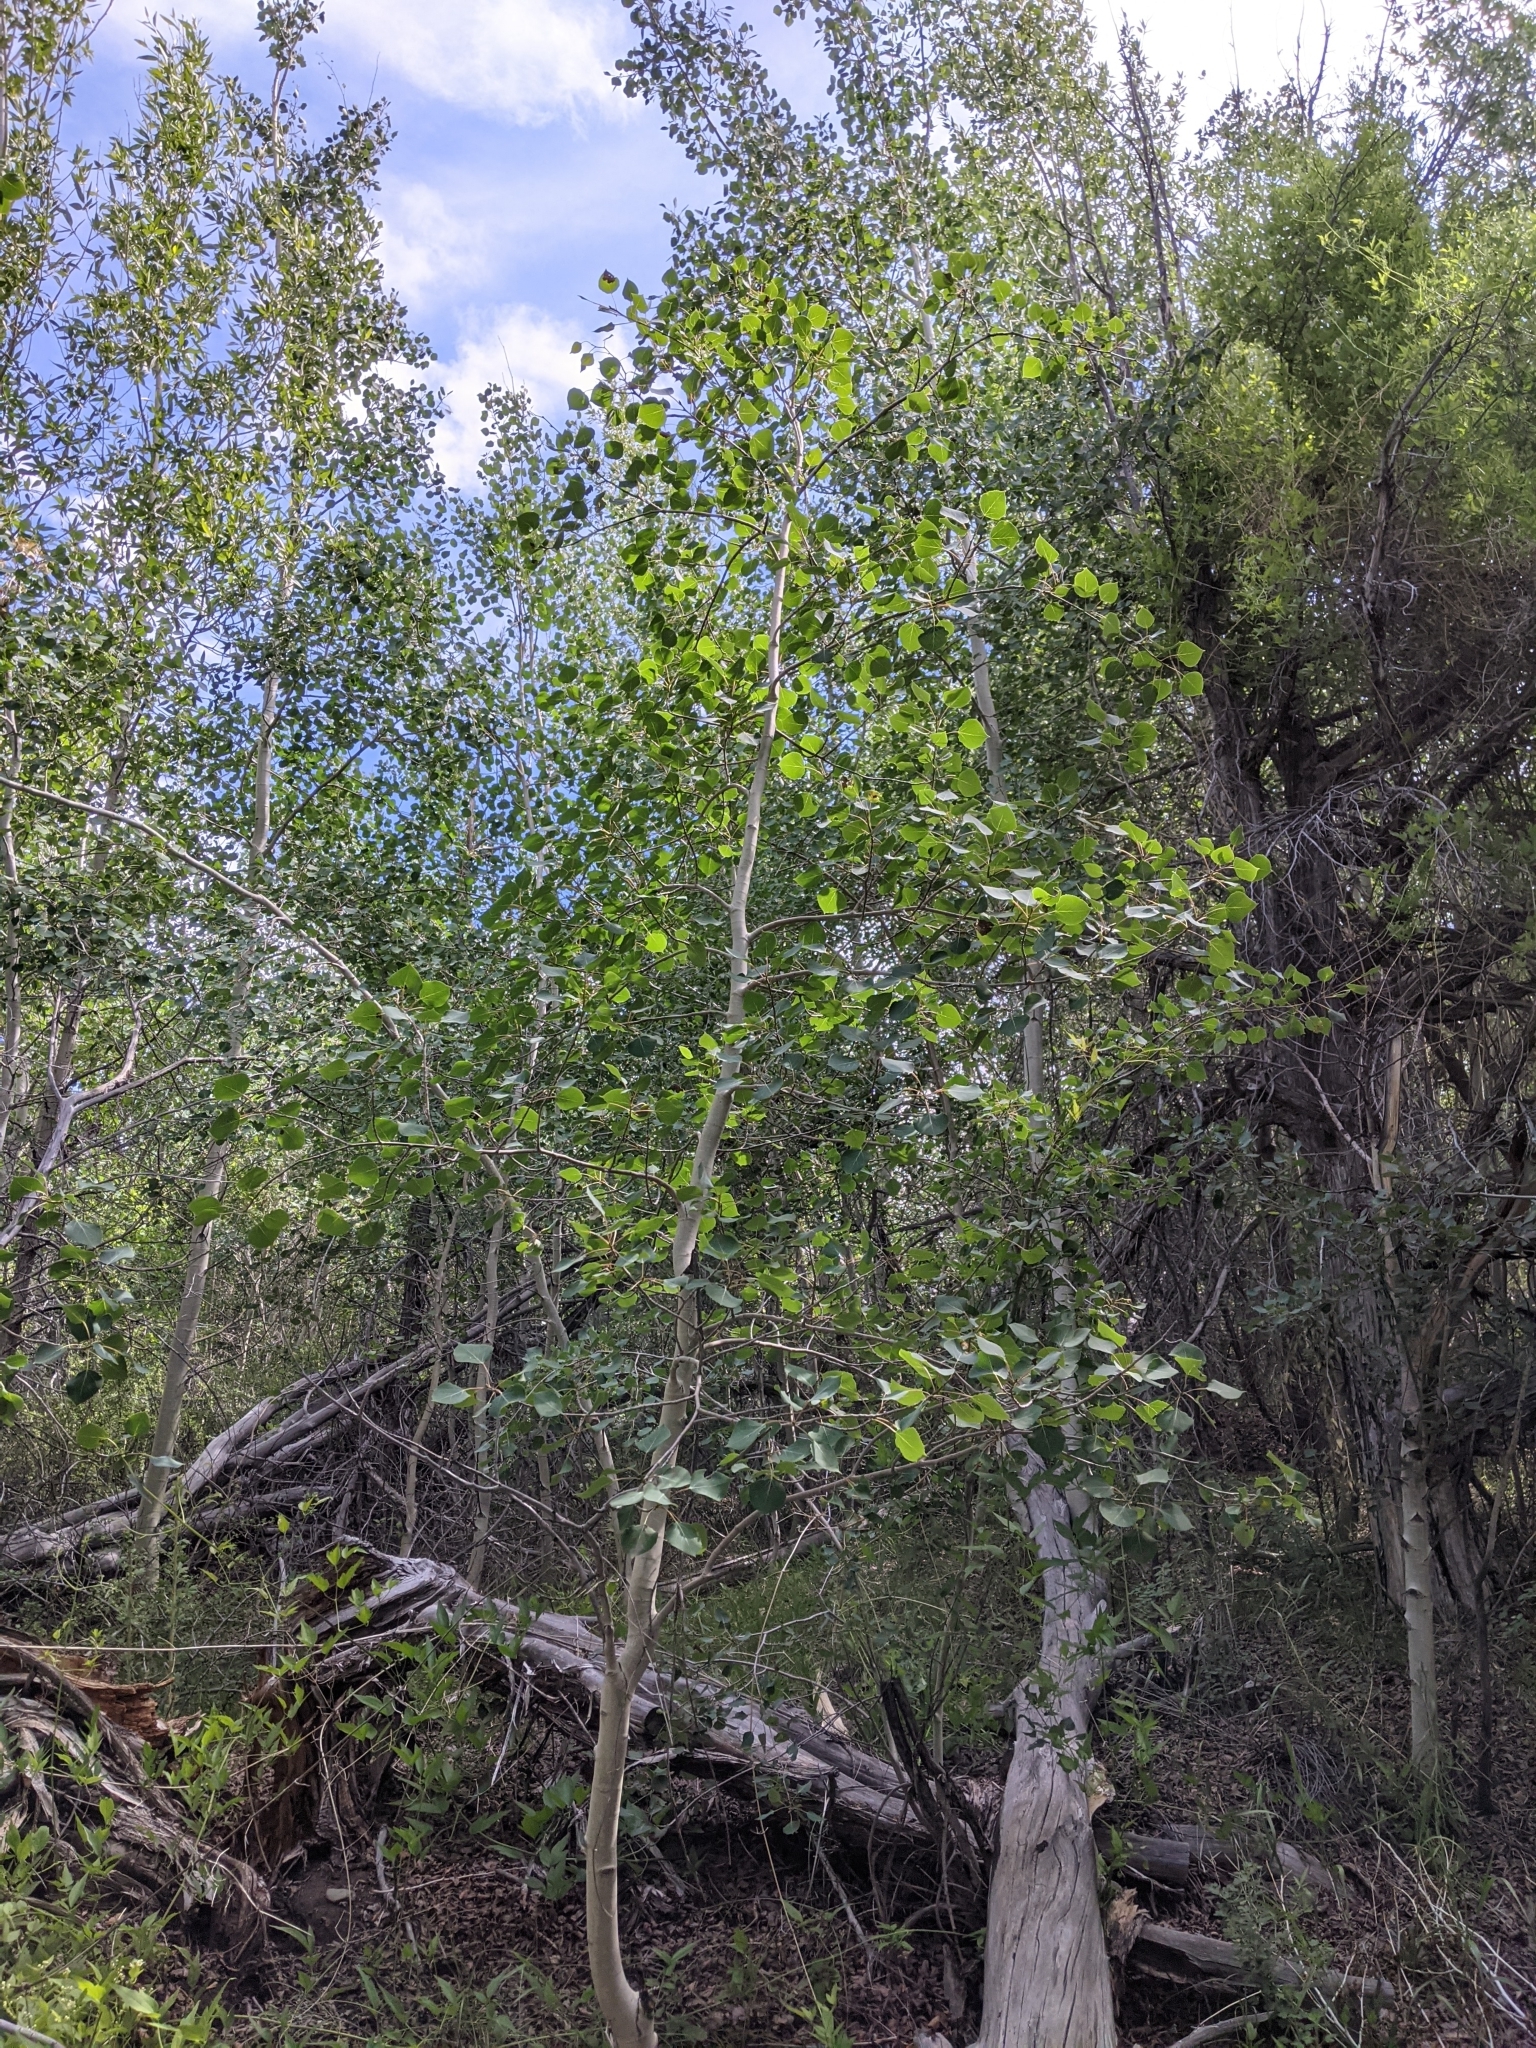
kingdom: Plantae
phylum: Tracheophyta
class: Magnoliopsida
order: Malpighiales
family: Salicaceae
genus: Populus
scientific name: Populus tremuloides
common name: Quaking aspen
